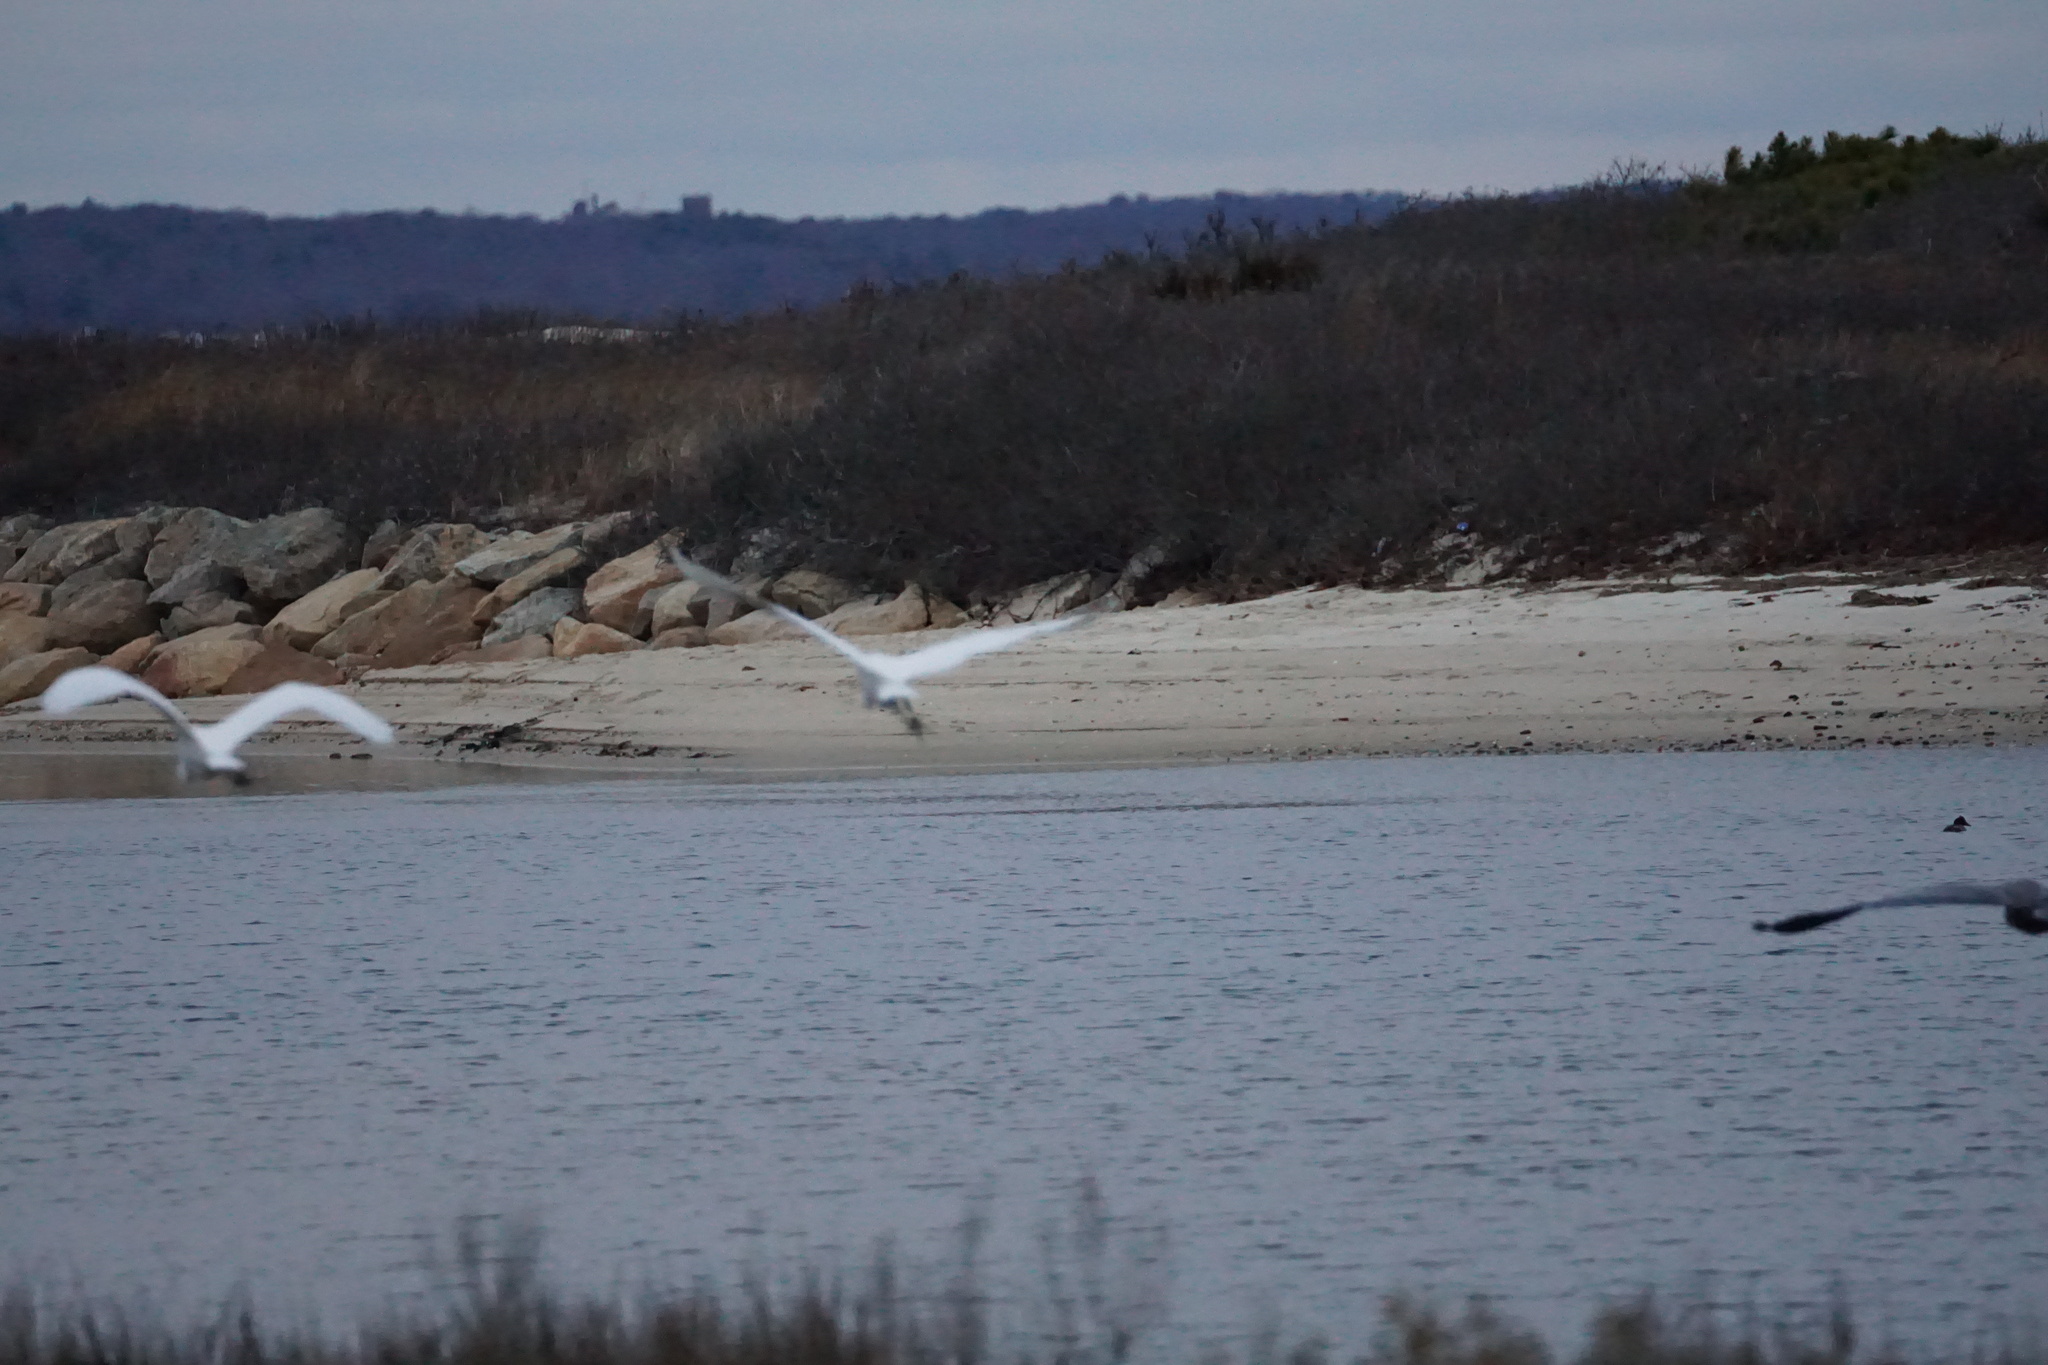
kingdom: Animalia
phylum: Chordata
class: Aves
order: Pelecaniformes
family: Ardeidae
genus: Ardea
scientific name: Ardea alba
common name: Great egret
